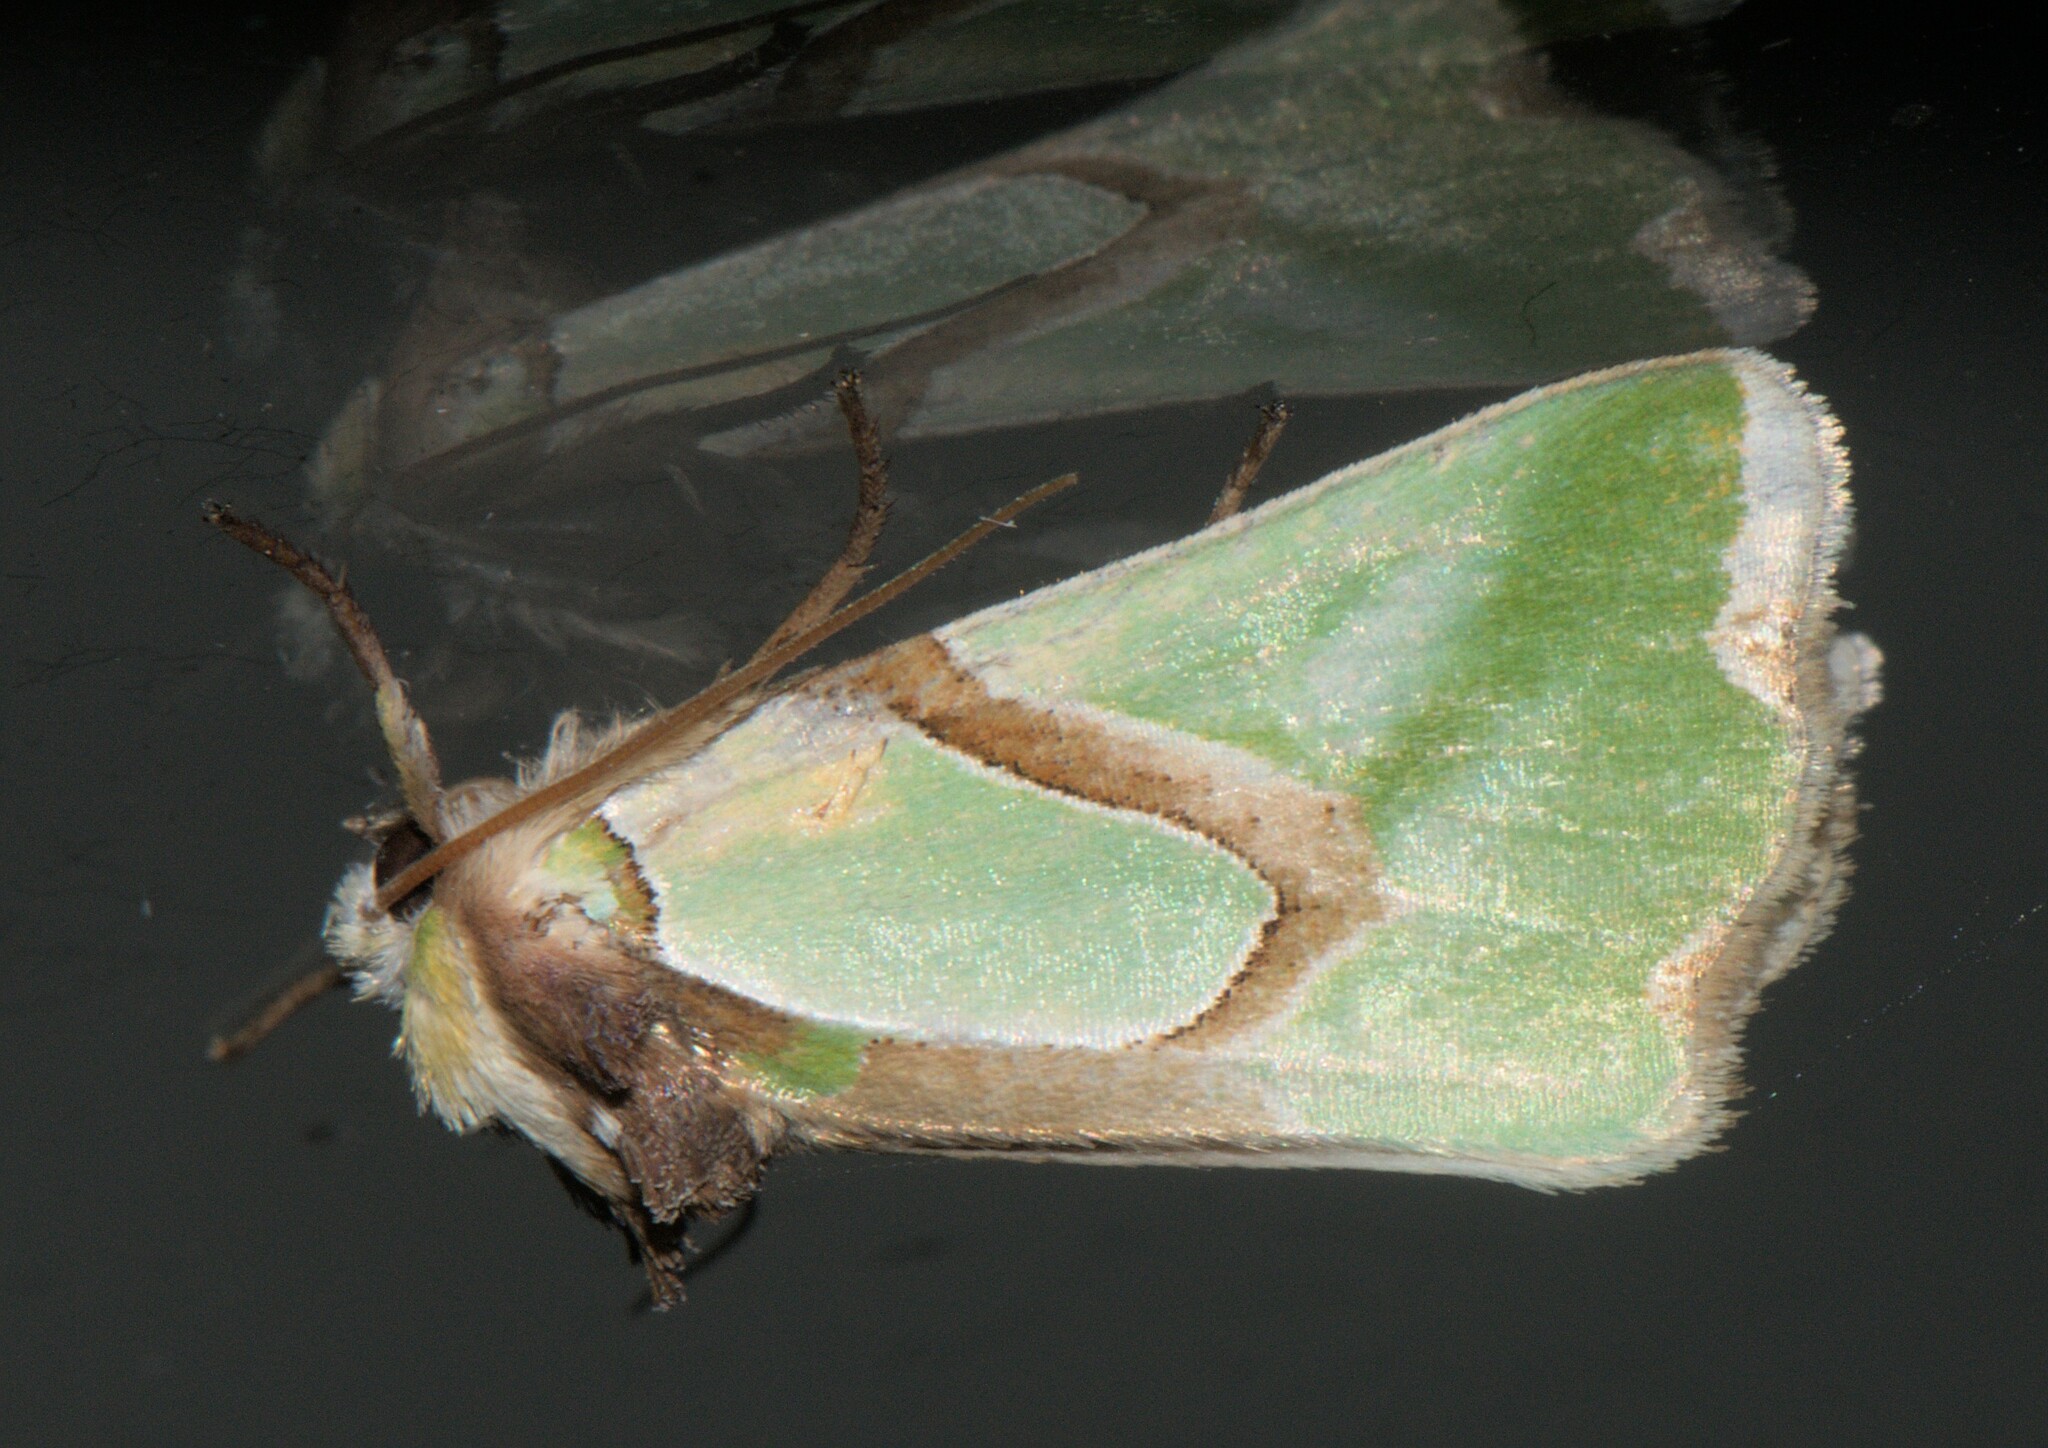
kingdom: Animalia
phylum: Arthropoda
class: Insecta
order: Lepidoptera
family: Noctuidae
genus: Nacna
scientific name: Nacna pulchripicta
